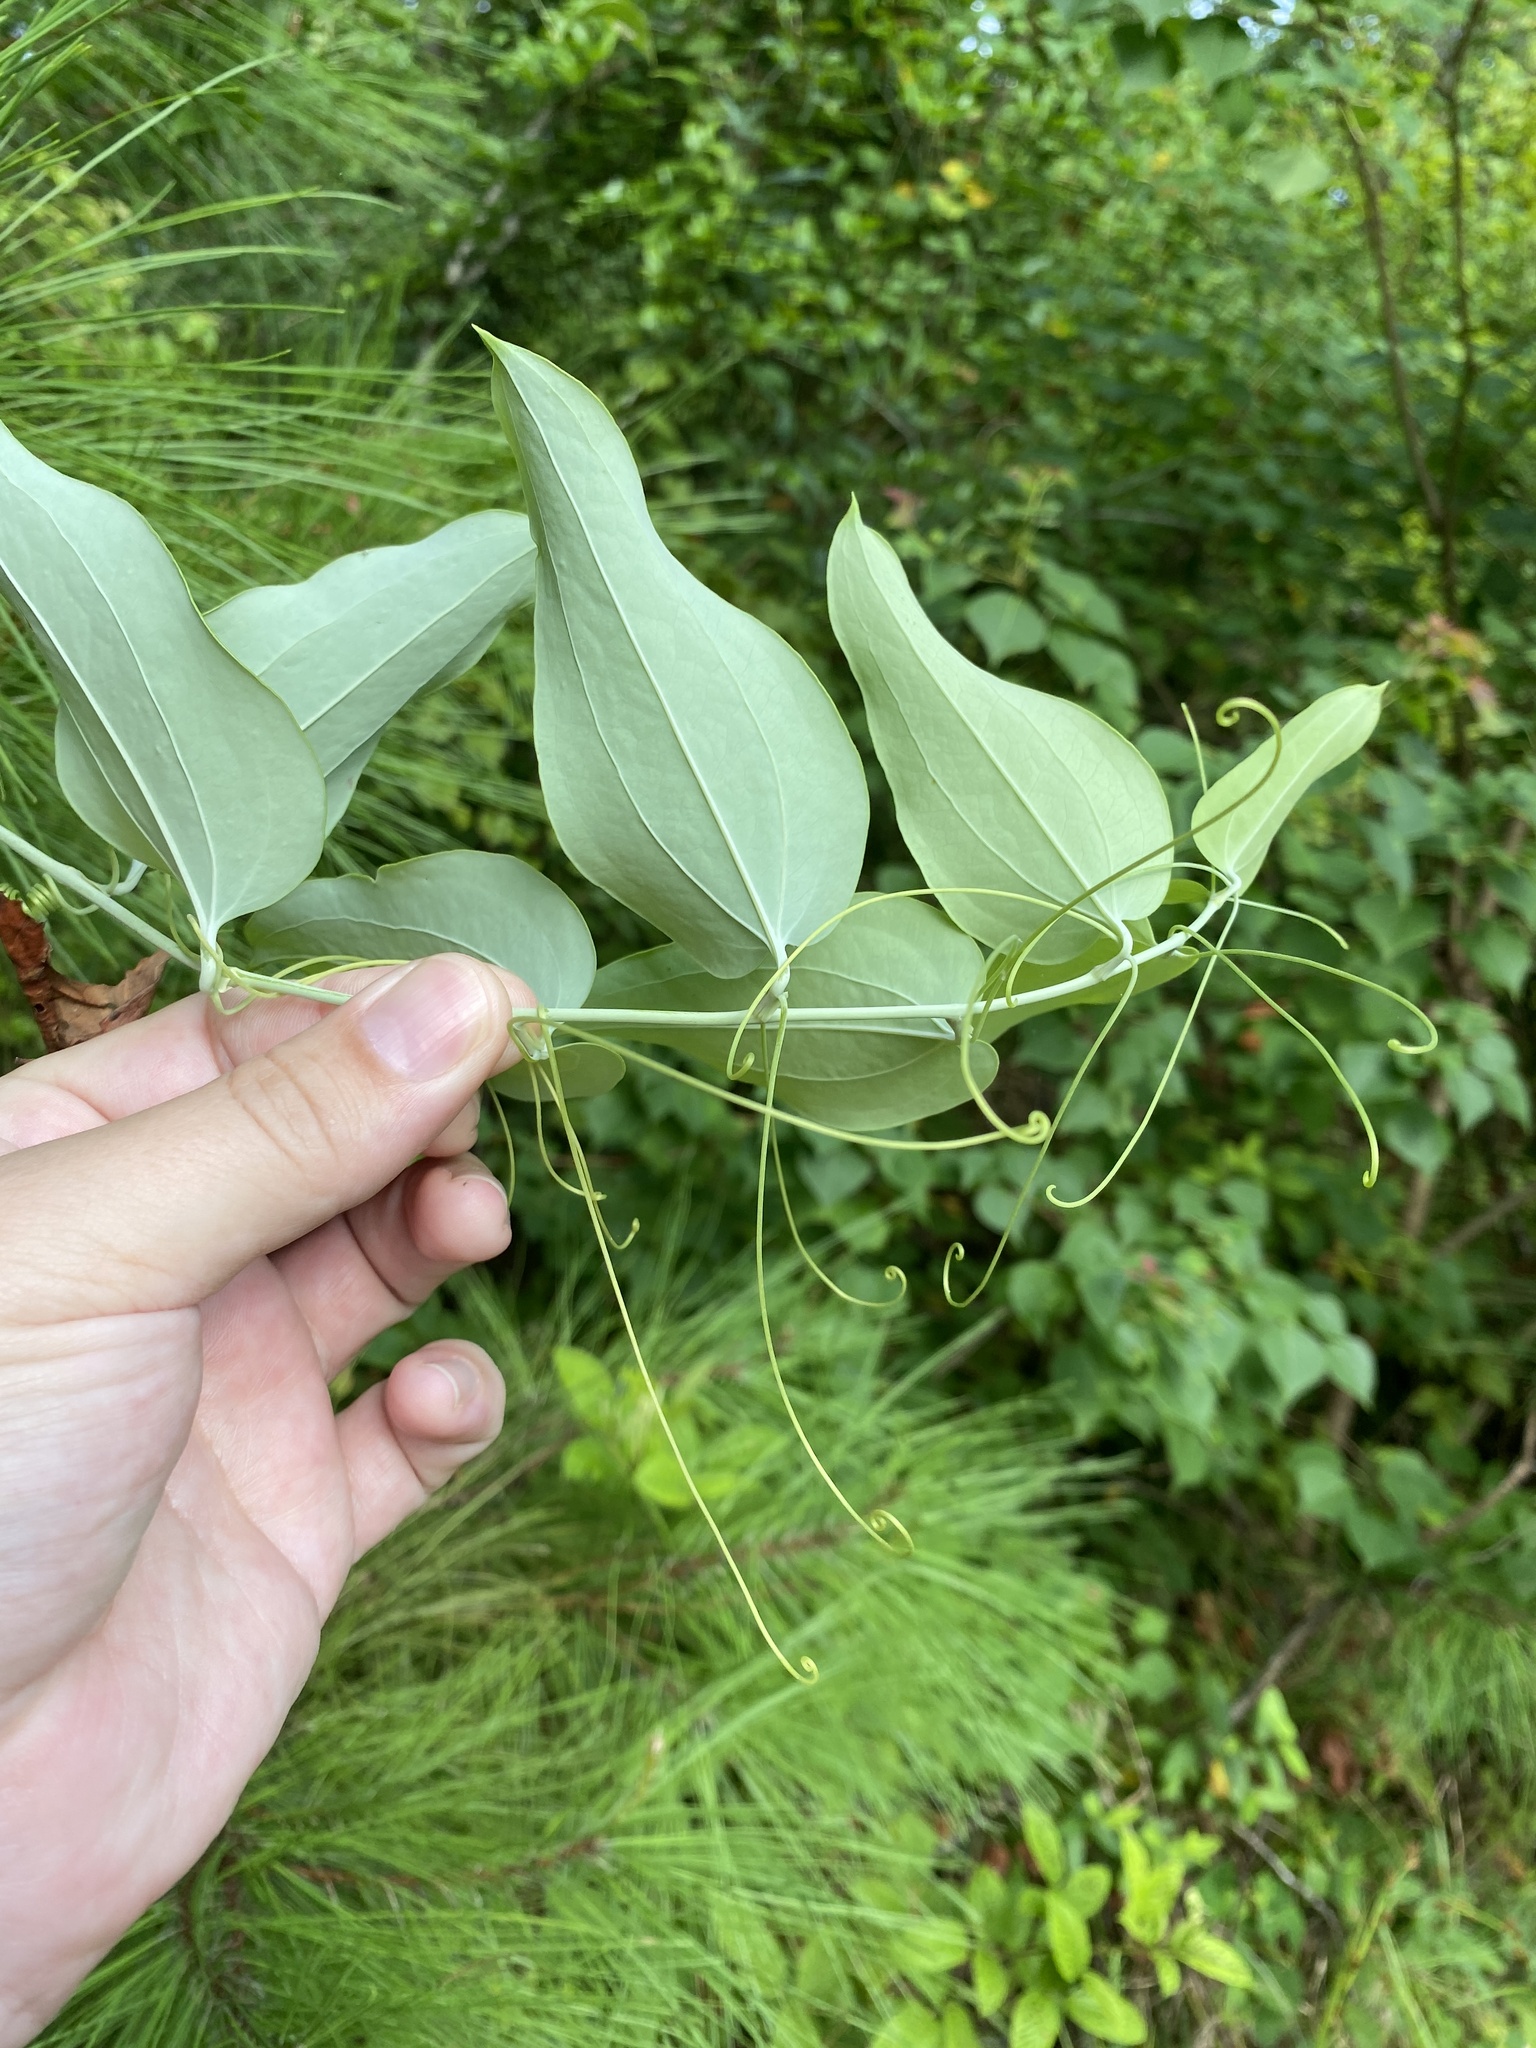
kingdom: Plantae
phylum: Tracheophyta
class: Liliopsida
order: Liliales
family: Smilacaceae
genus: Smilax
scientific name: Smilax glauca
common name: Cat greenbrier
